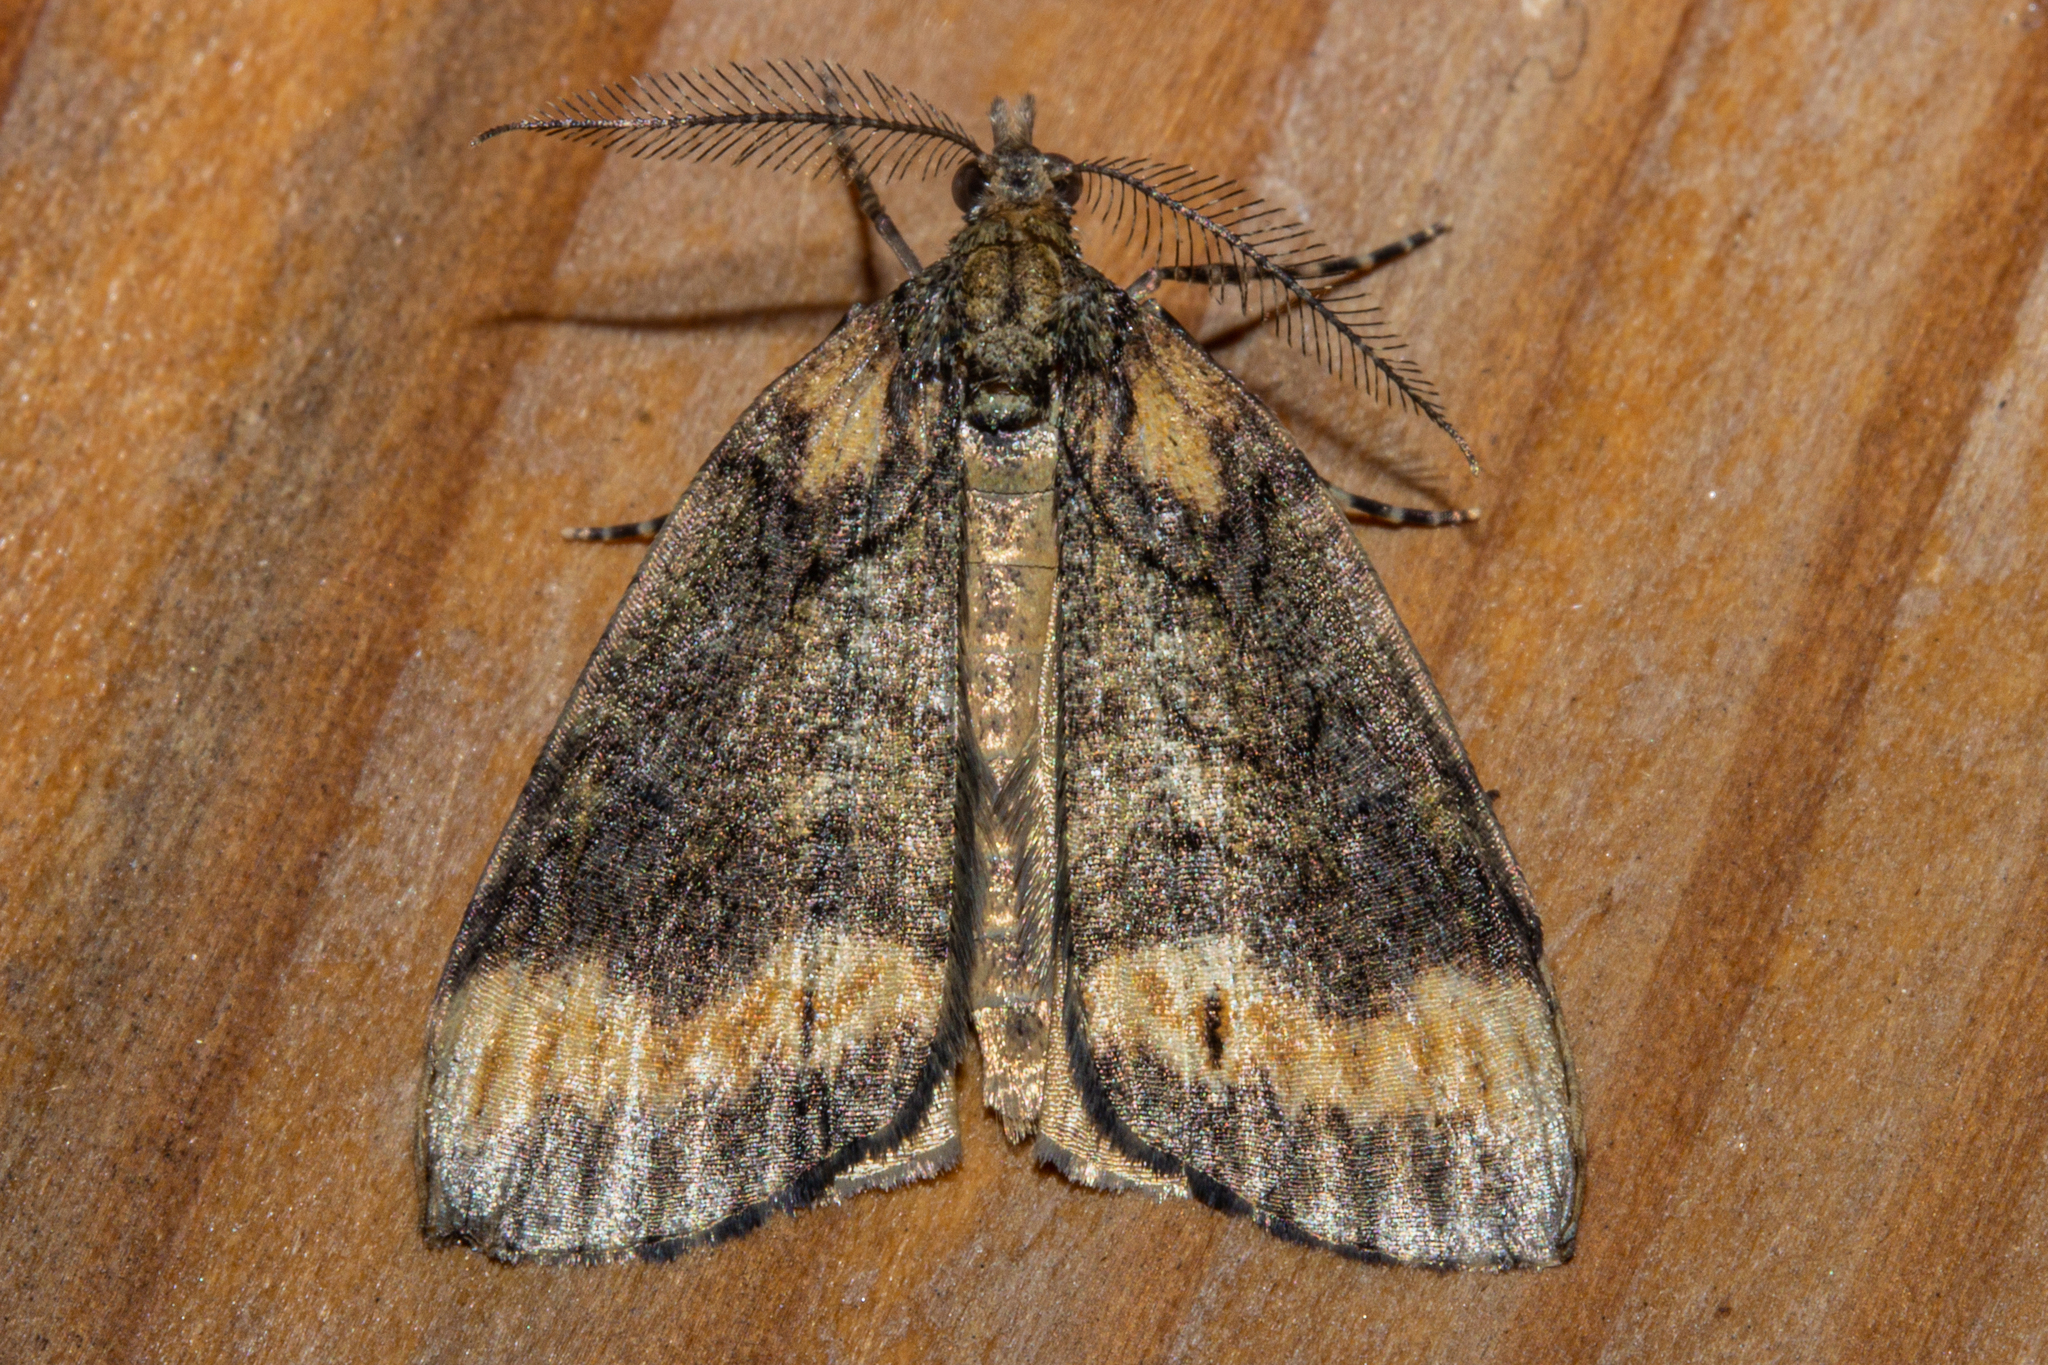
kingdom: Animalia
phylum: Arthropoda
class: Insecta
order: Lepidoptera
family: Geometridae
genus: Chalastra
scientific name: Chalastra ochrea
